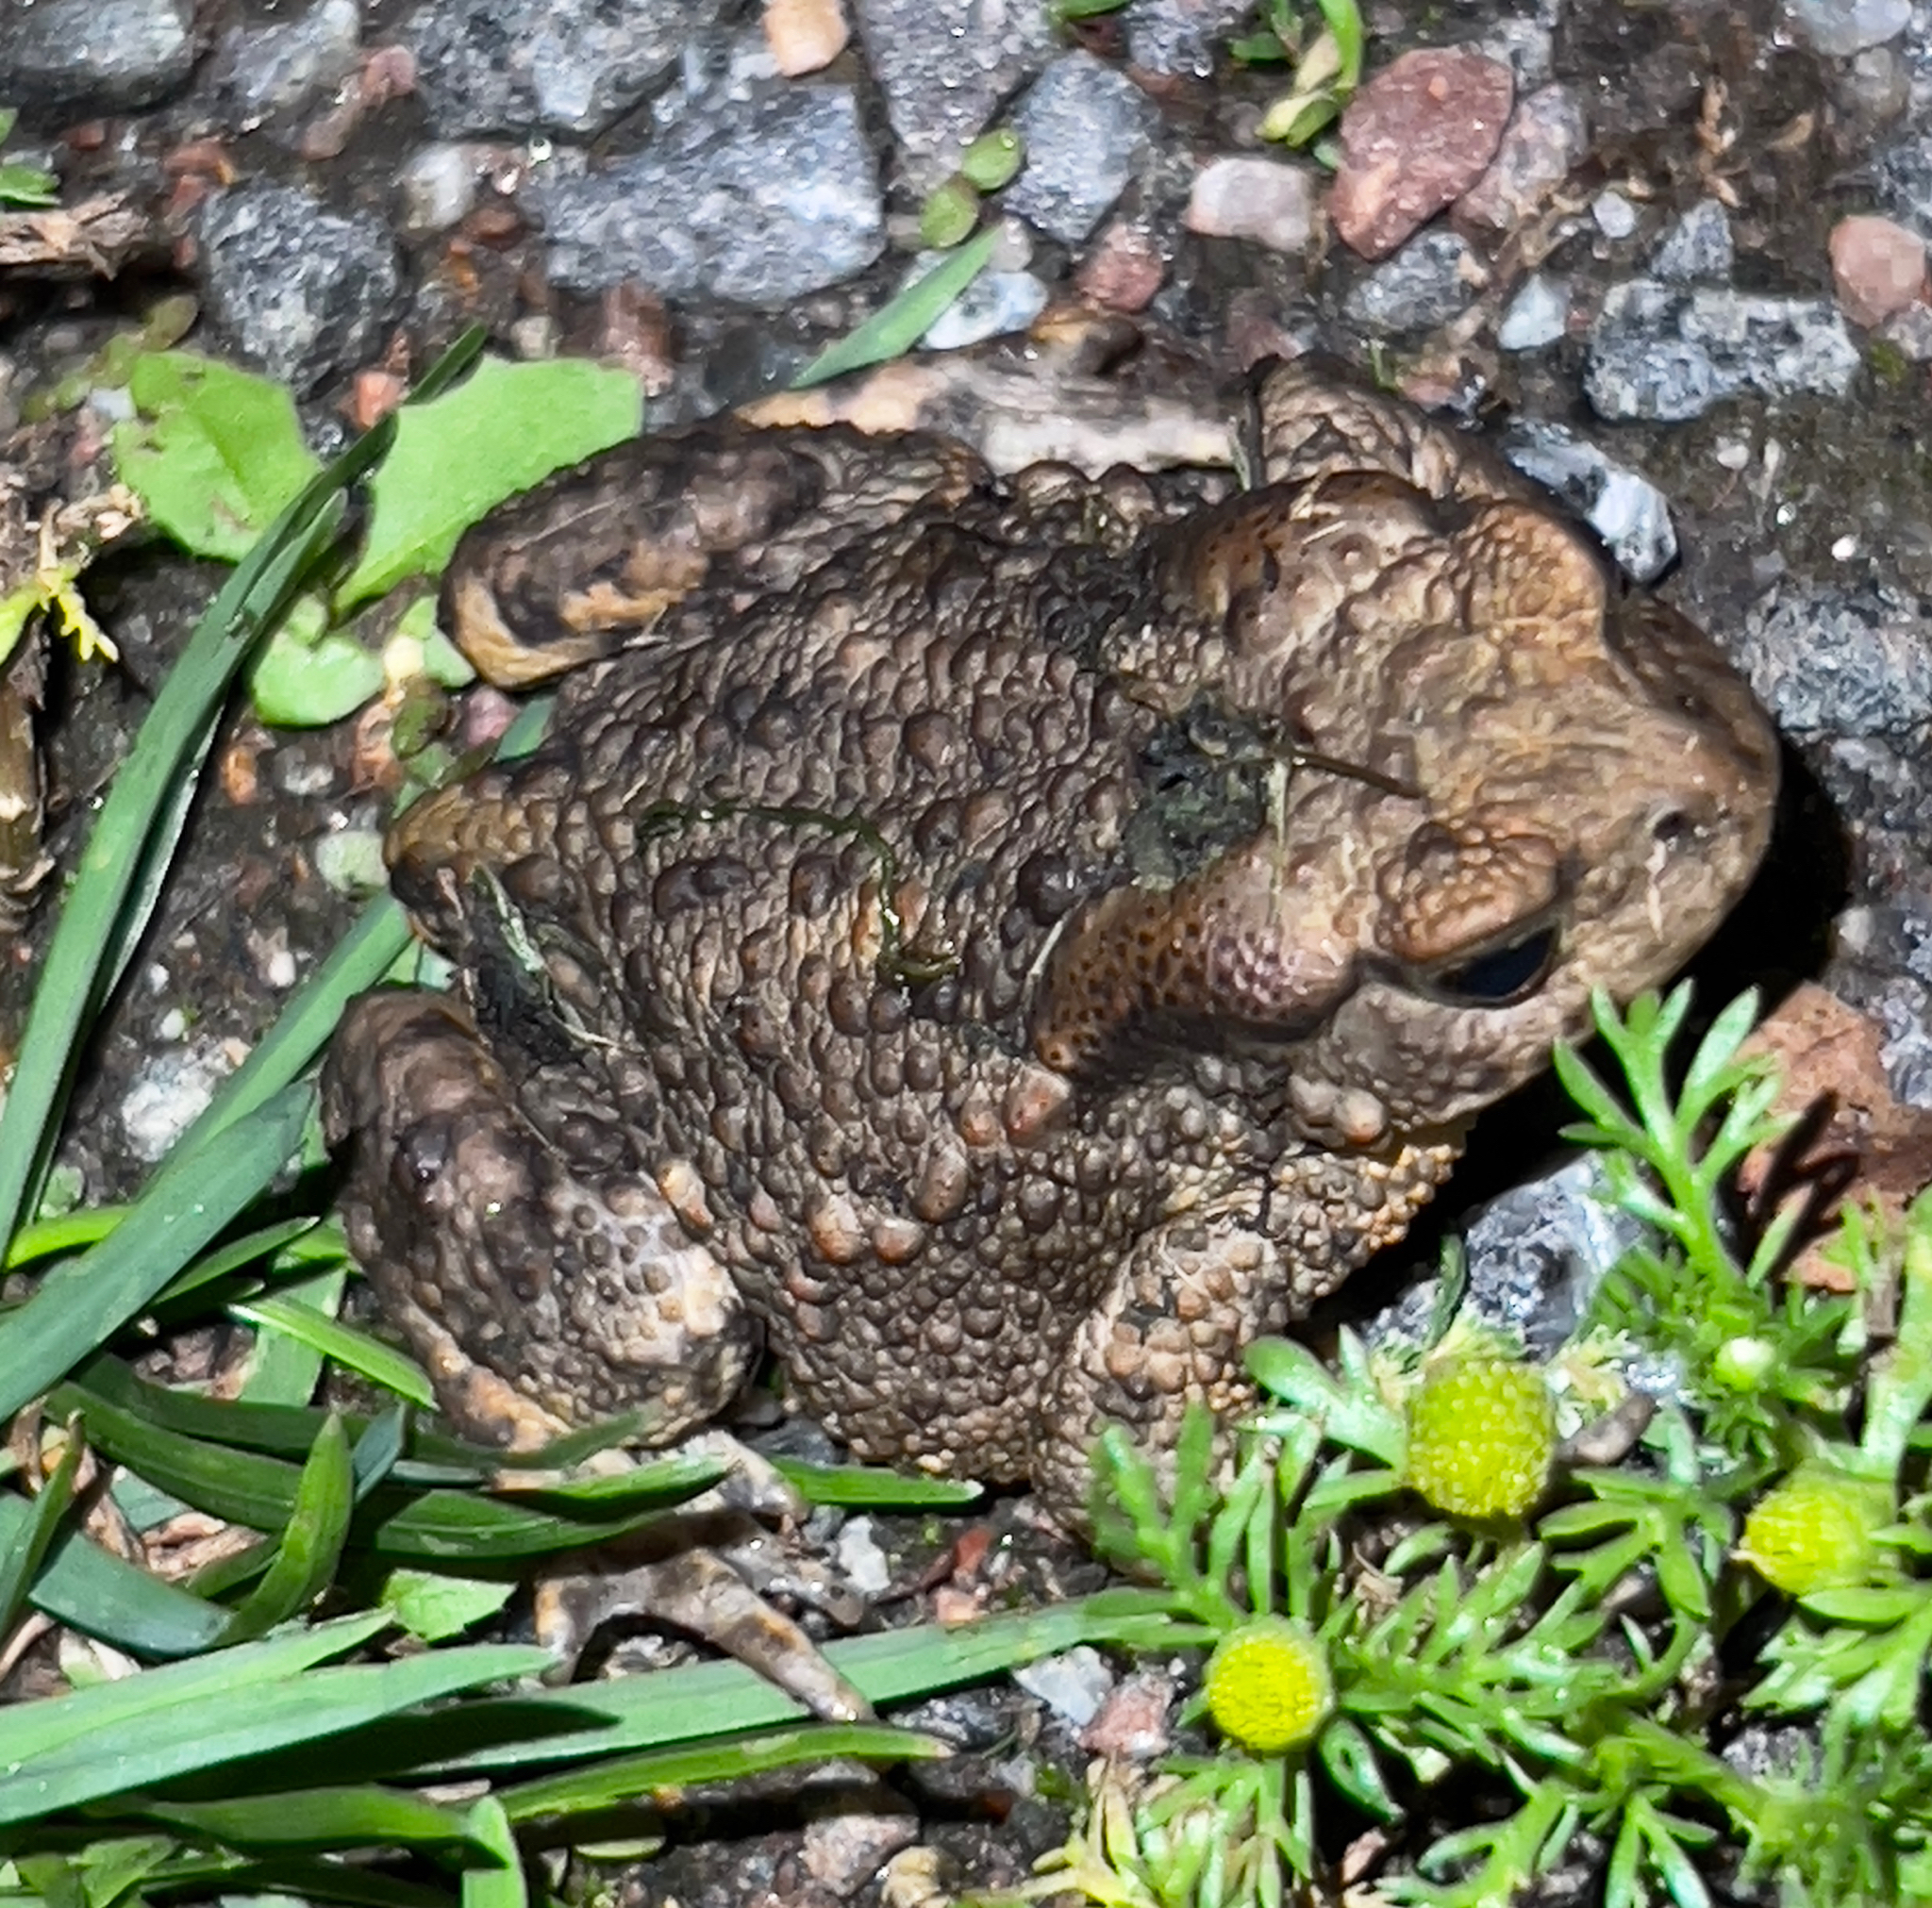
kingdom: Animalia
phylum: Chordata
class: Amphibia
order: Anura
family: Bufonidae
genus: Bufo
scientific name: Bufo bufo
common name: Common toad
